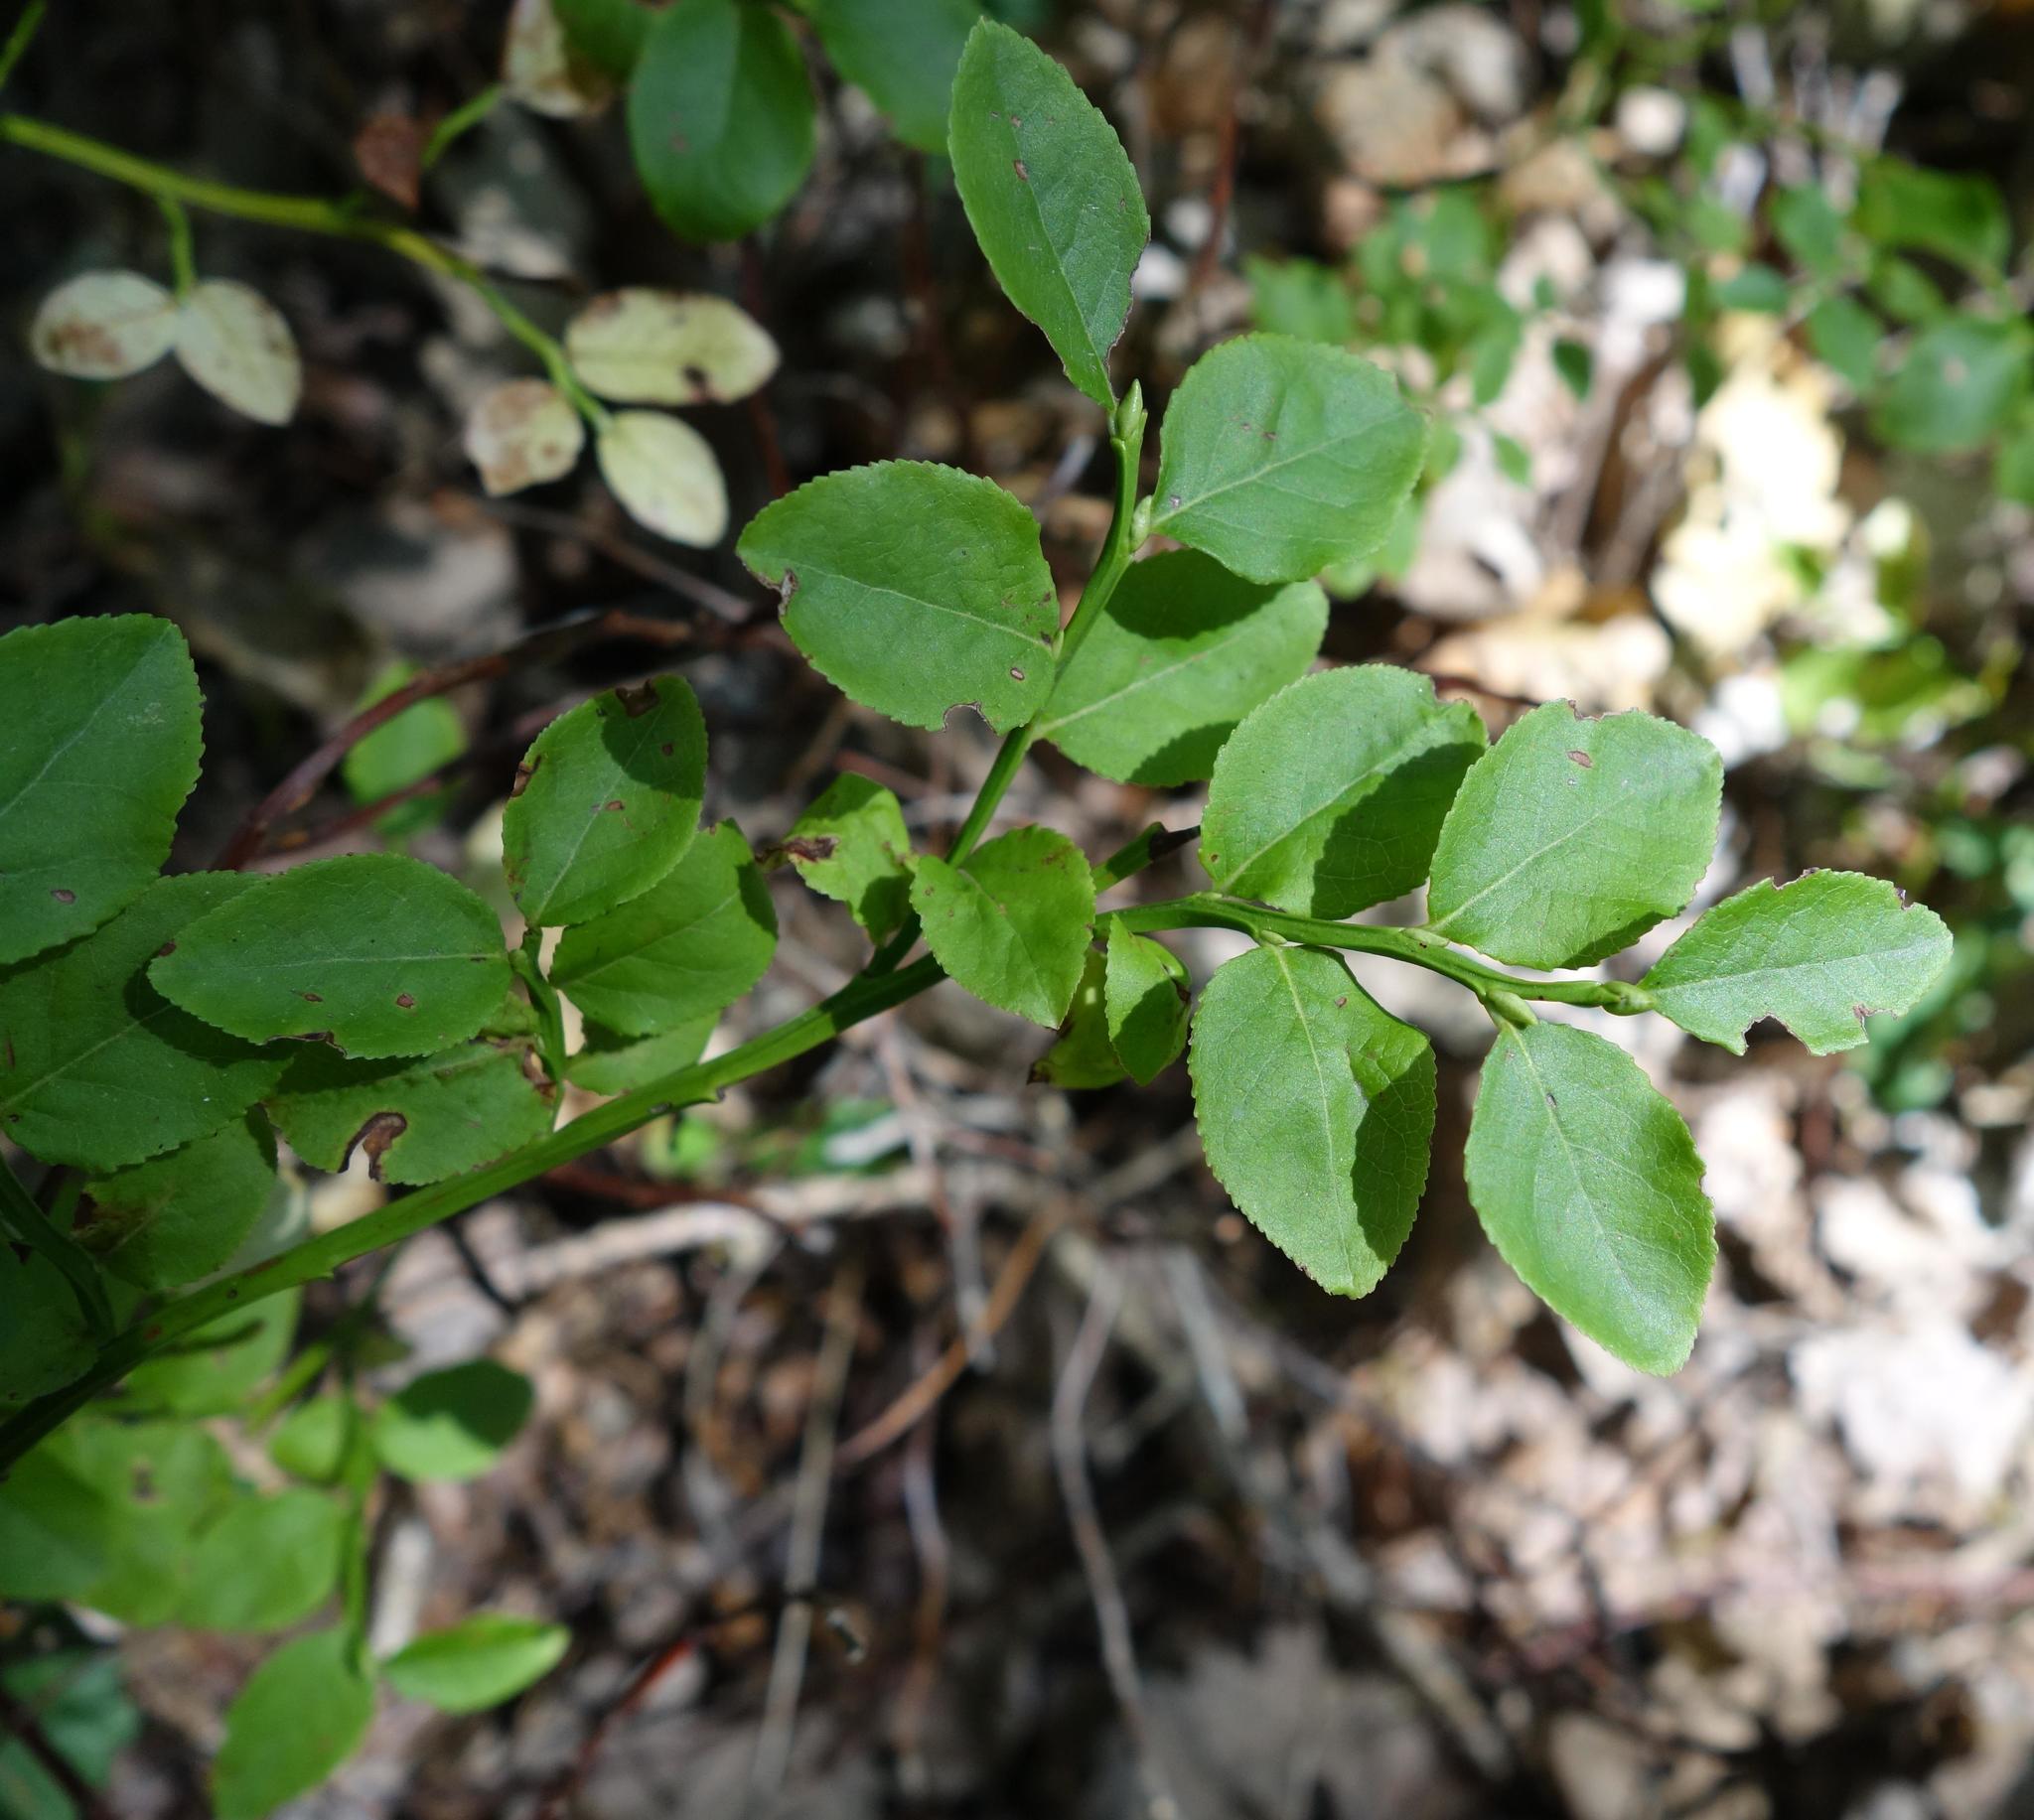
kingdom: Plantae
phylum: Tracheophyta
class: Magnoliopsida
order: Ericales
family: Ericaceae
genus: Vaccinium
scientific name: Vaccinium myrtillus
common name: Bilberry
